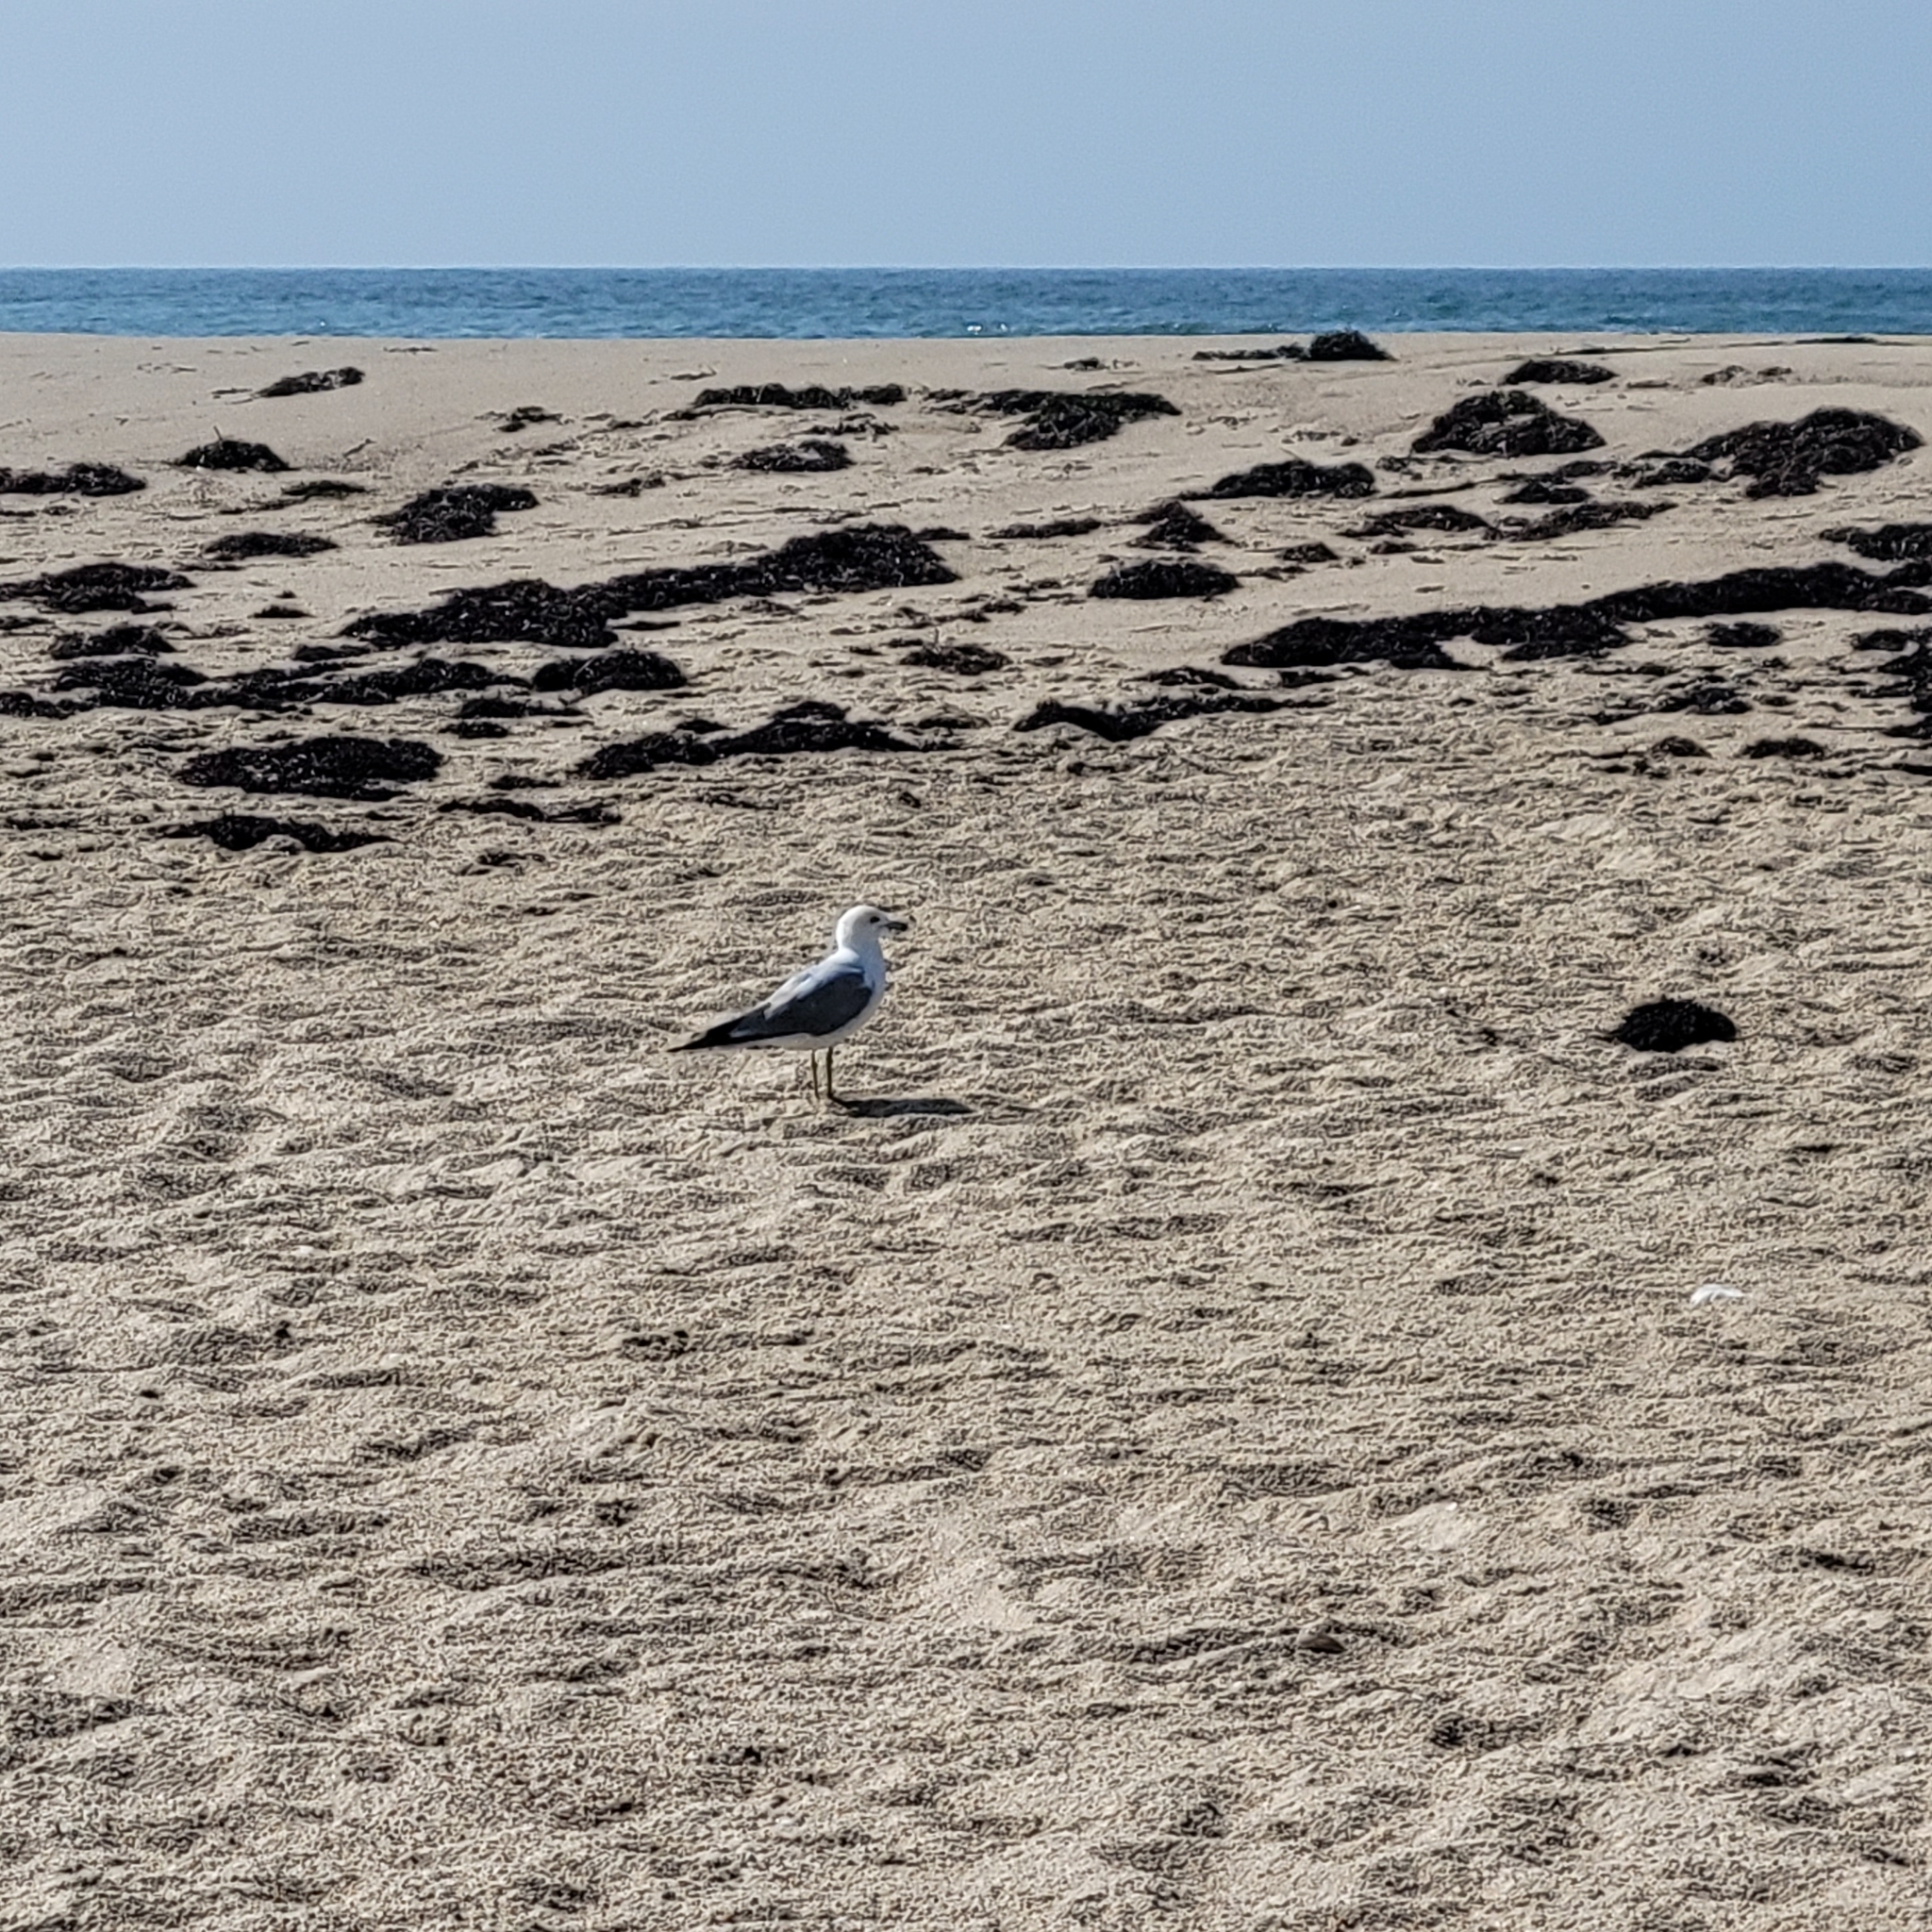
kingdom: Animalia
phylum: Chordata
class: Aves
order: Charadriiformes
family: Laridae
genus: Larus
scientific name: Larus delawarensis
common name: Ring-billed gull
